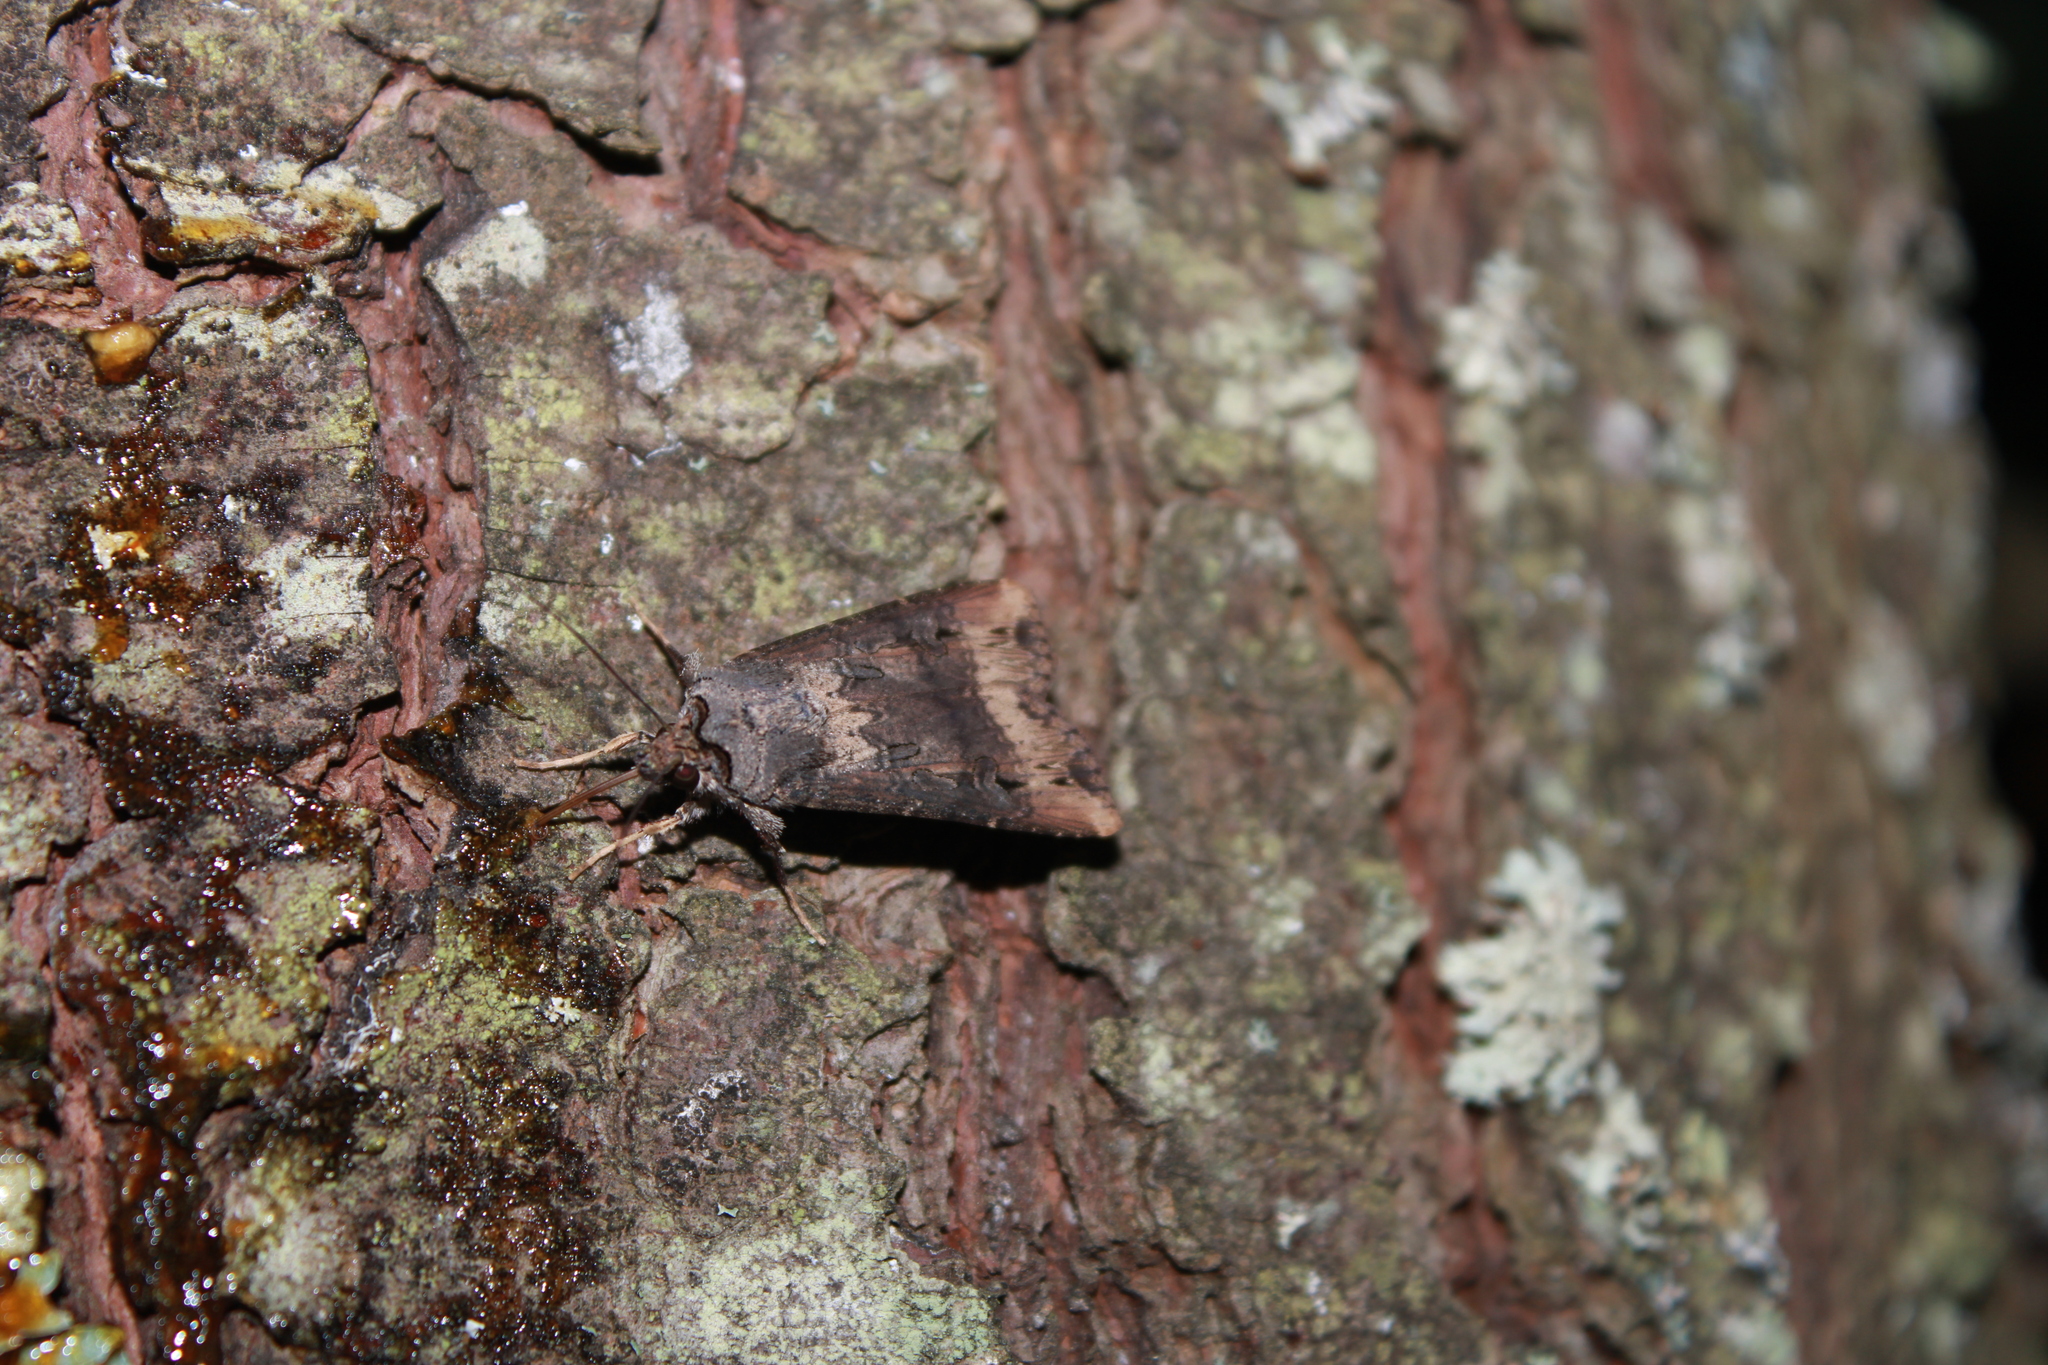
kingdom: Animalia
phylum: Arthropoda
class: Insecta
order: Lepidoptera
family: Noctuidae
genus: Agrotis
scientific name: Agrotis ipsilon
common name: Dark sword-grass
